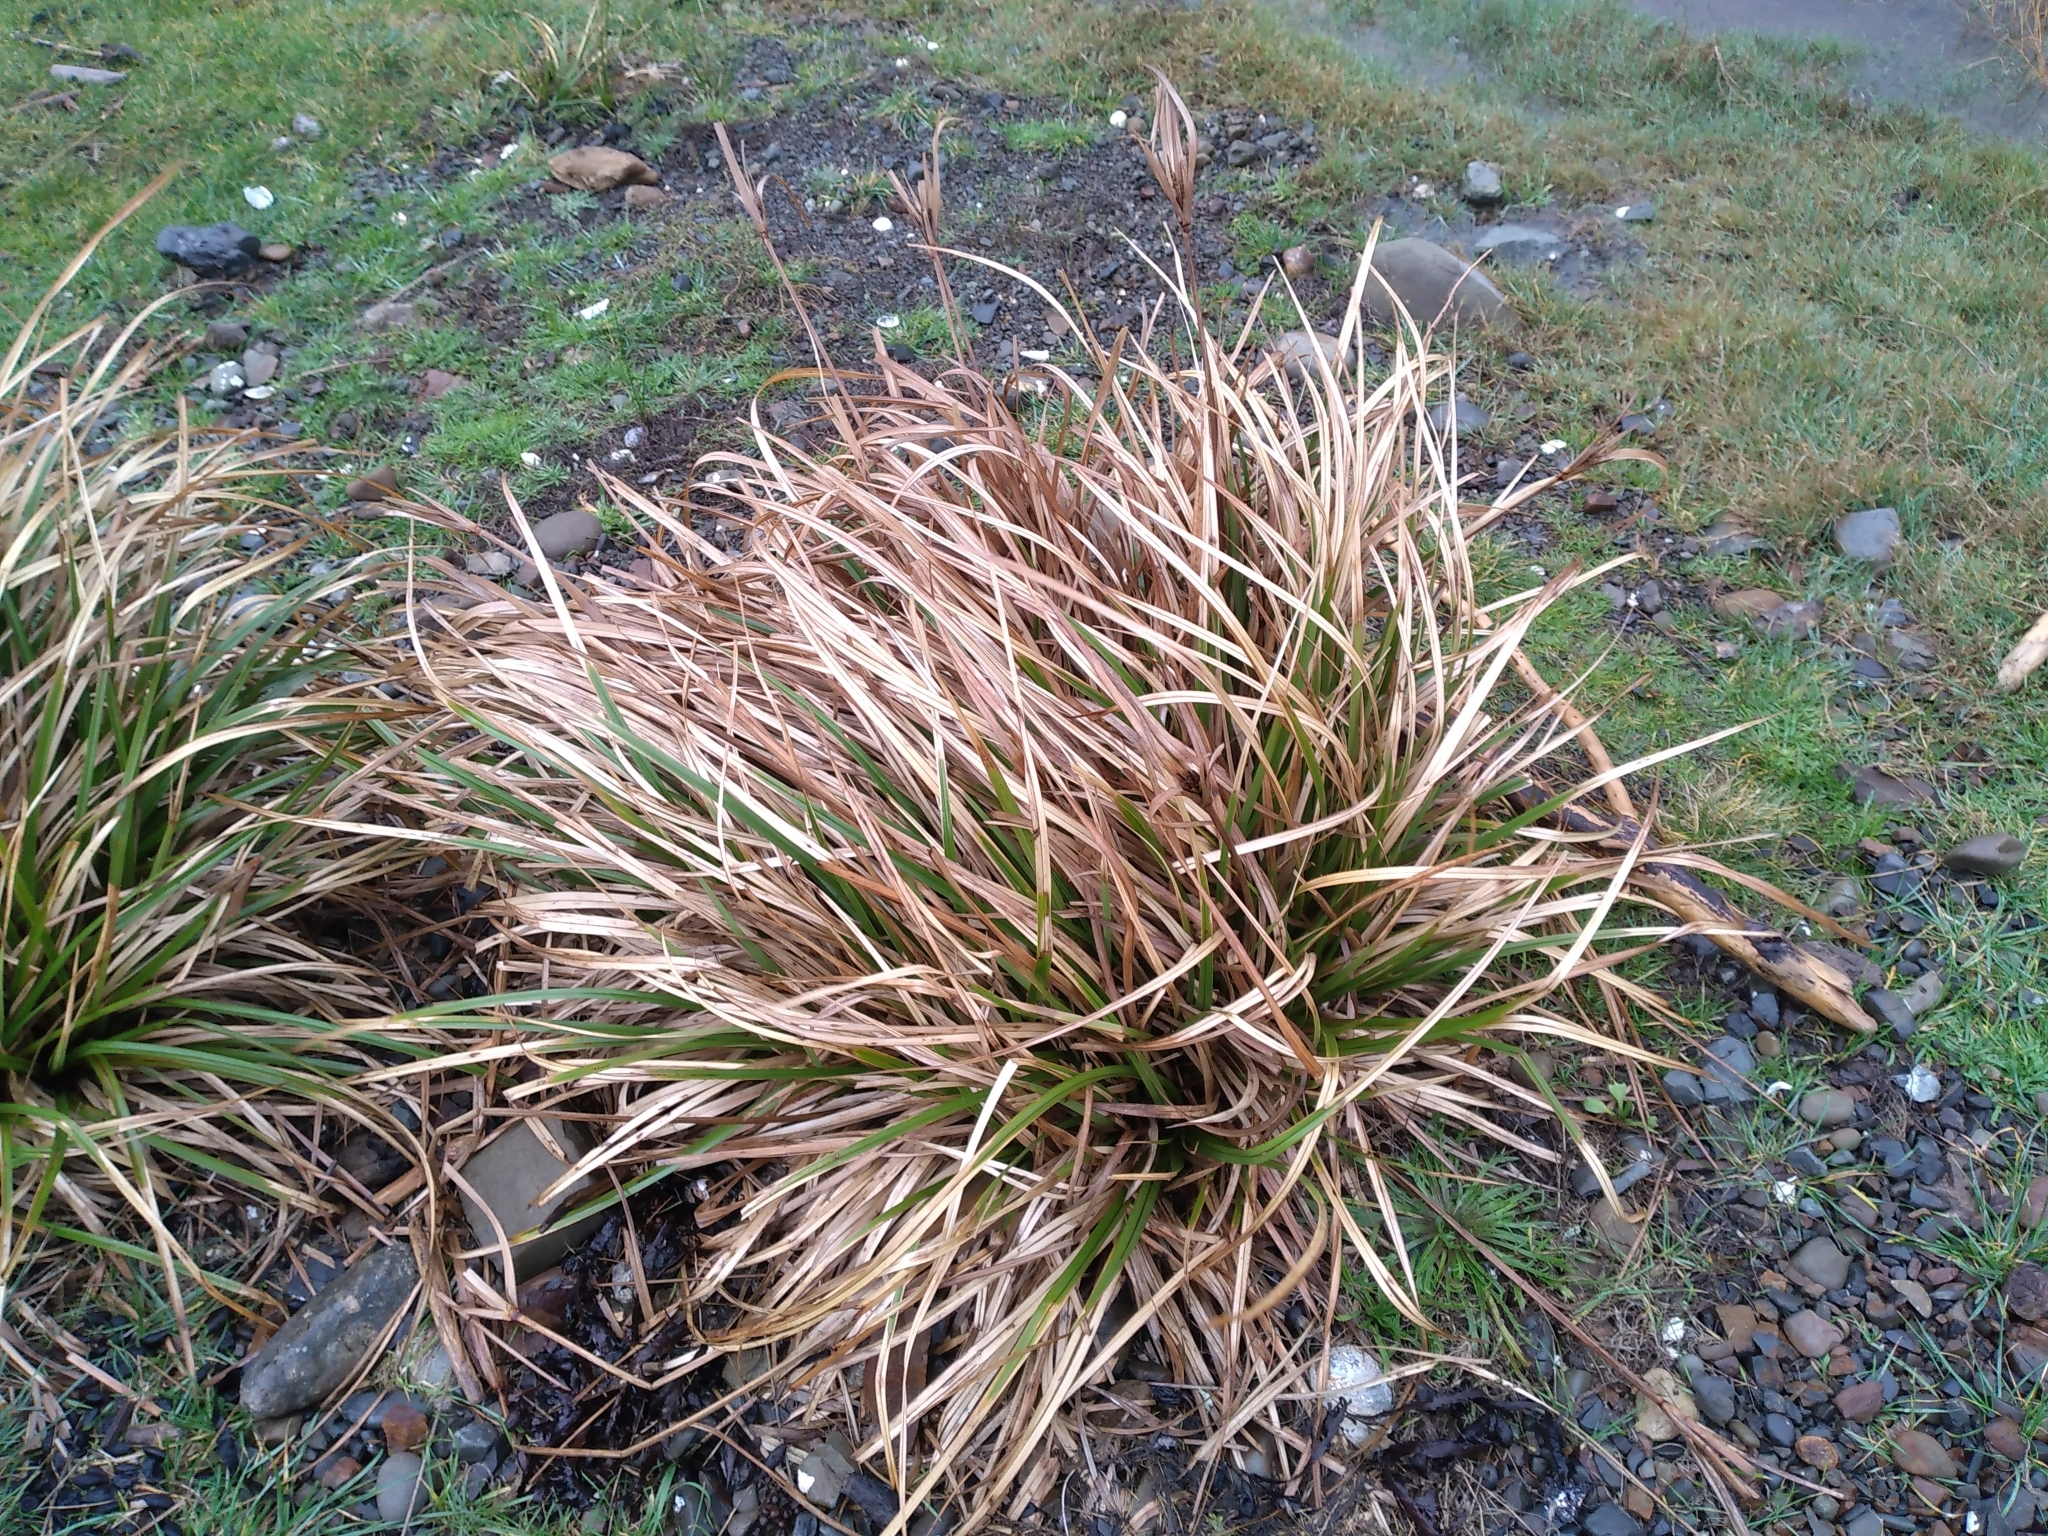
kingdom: Plantae
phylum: Tracheophyta
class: Liliopsida
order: Poales
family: Cyperaceae
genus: Cyperus
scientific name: Cyperus ustulatus
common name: Giant umbrella-sedge
